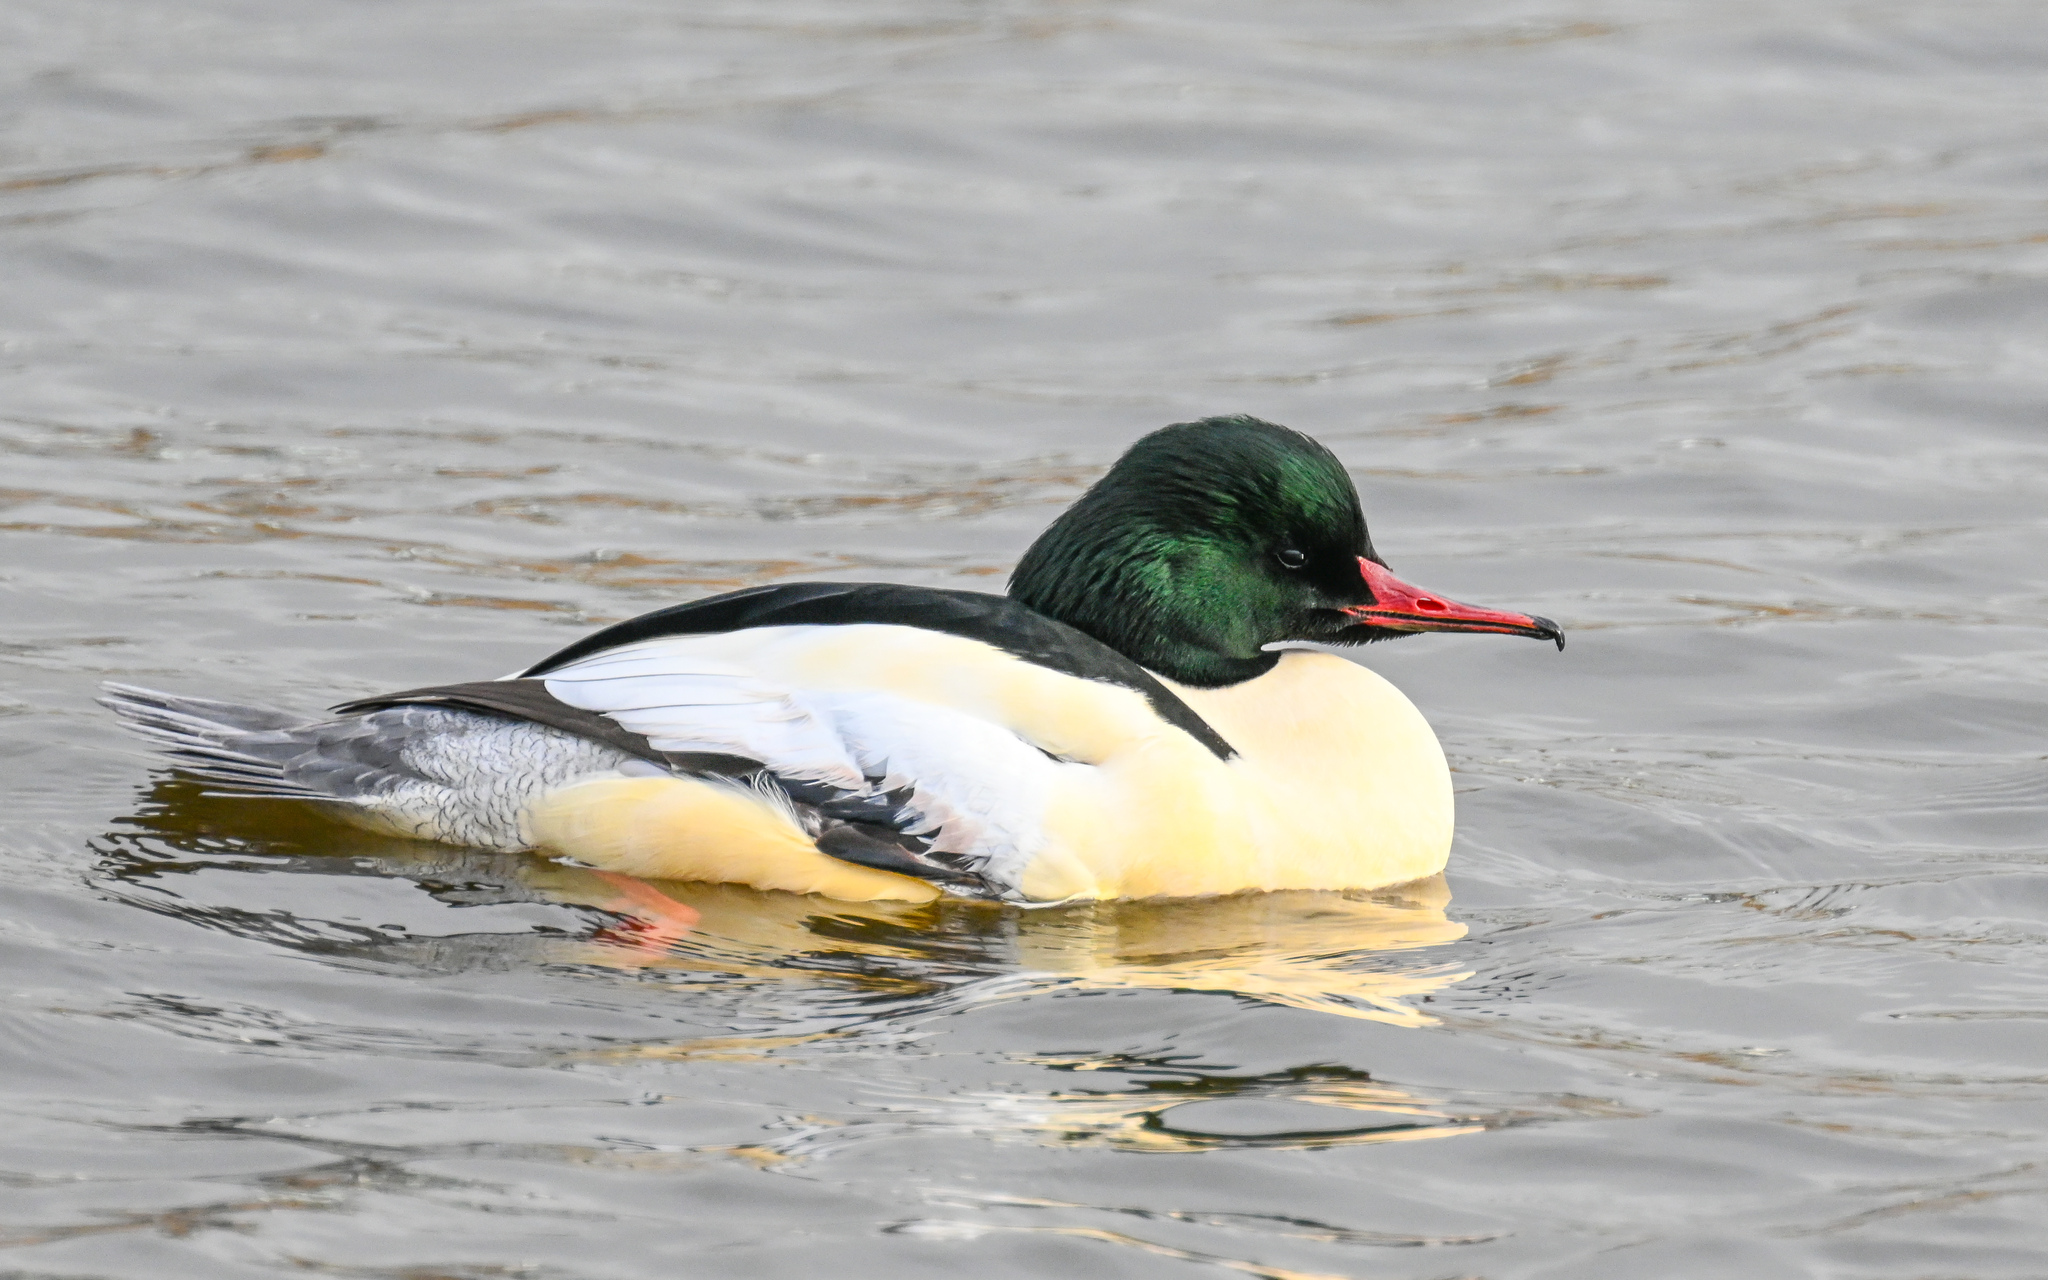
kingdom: Animalia
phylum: Chordata
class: Aves
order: Anseriformes
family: Anatidae
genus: Mergus
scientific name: Mergus merganser
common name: Common merganser
